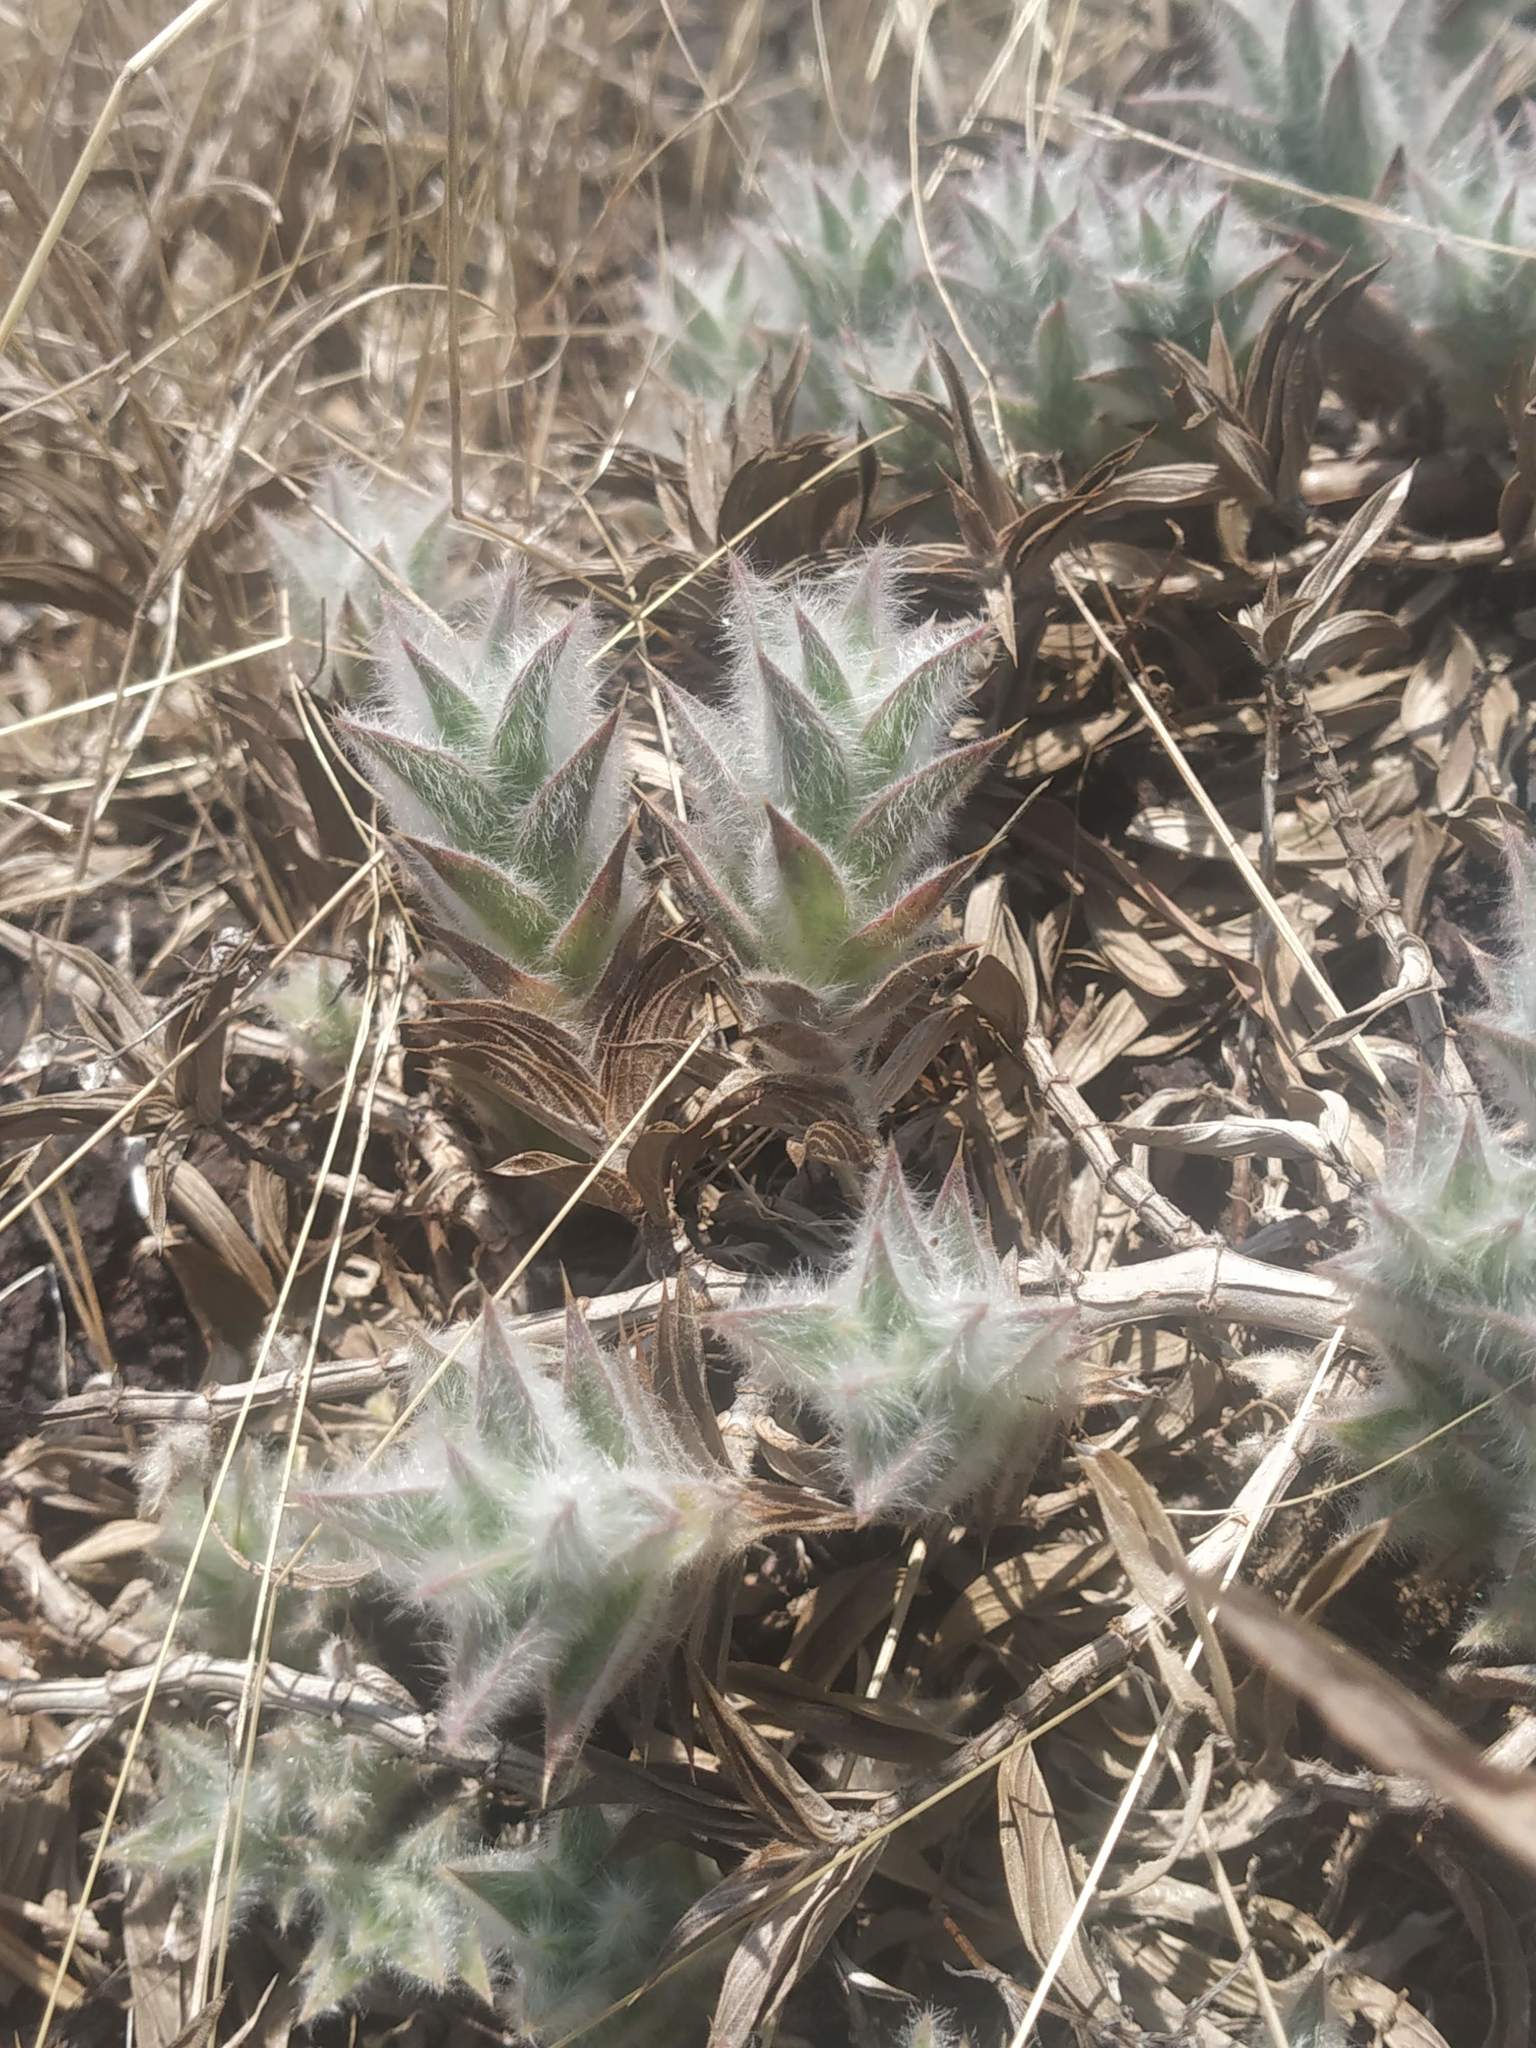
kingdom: Plantae
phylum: Tracheophyta
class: Magnoliopsida
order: Lamiales
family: Acanthaceae
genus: Lepidagathis
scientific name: Lepidagathis clavata
